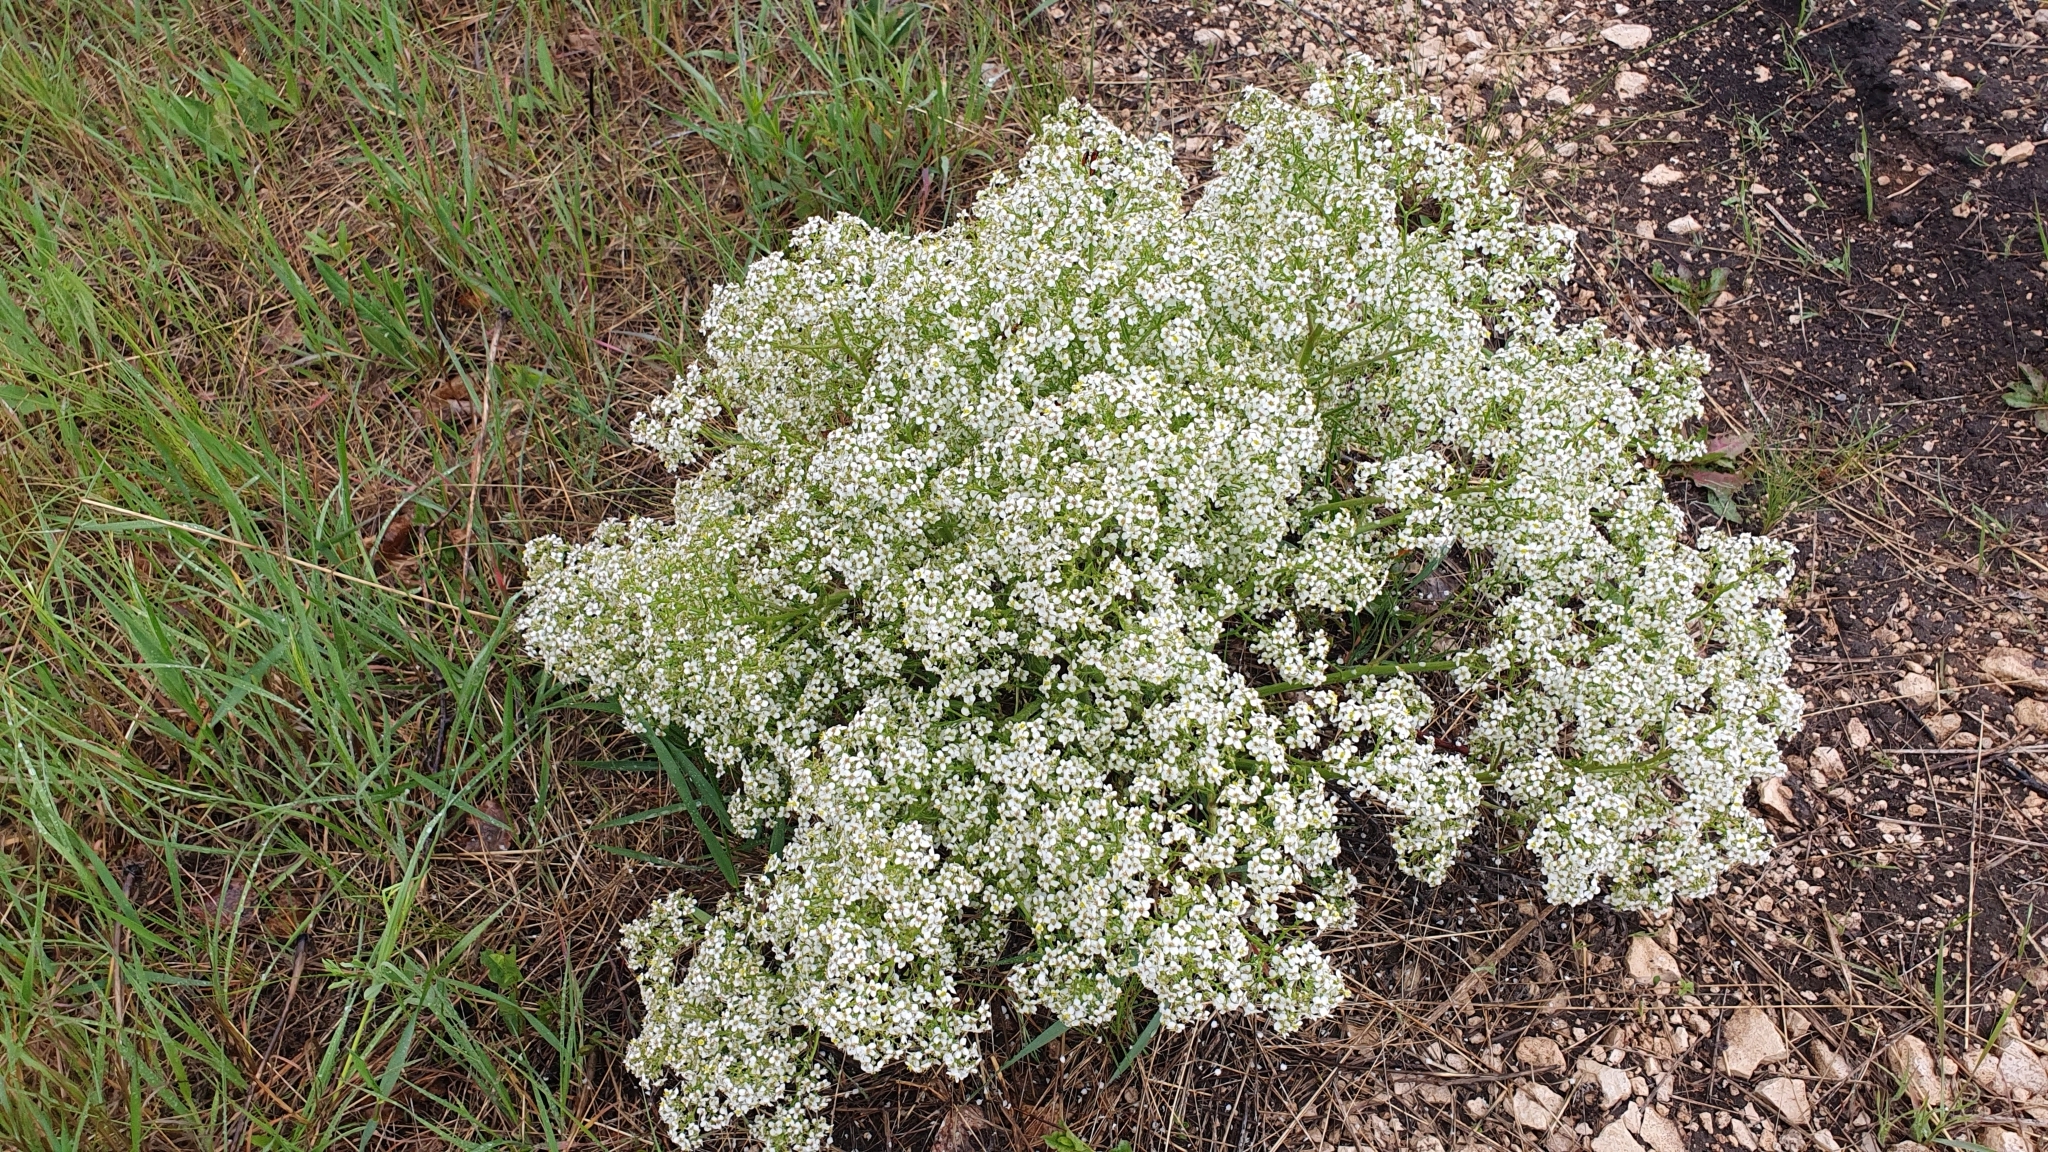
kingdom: Plantae
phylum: Tracheophyta
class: Magnoliopsida
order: Brassicales
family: Brassicaceae
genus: Crambe
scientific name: Crambe tataria
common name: Tartarian breadplant
